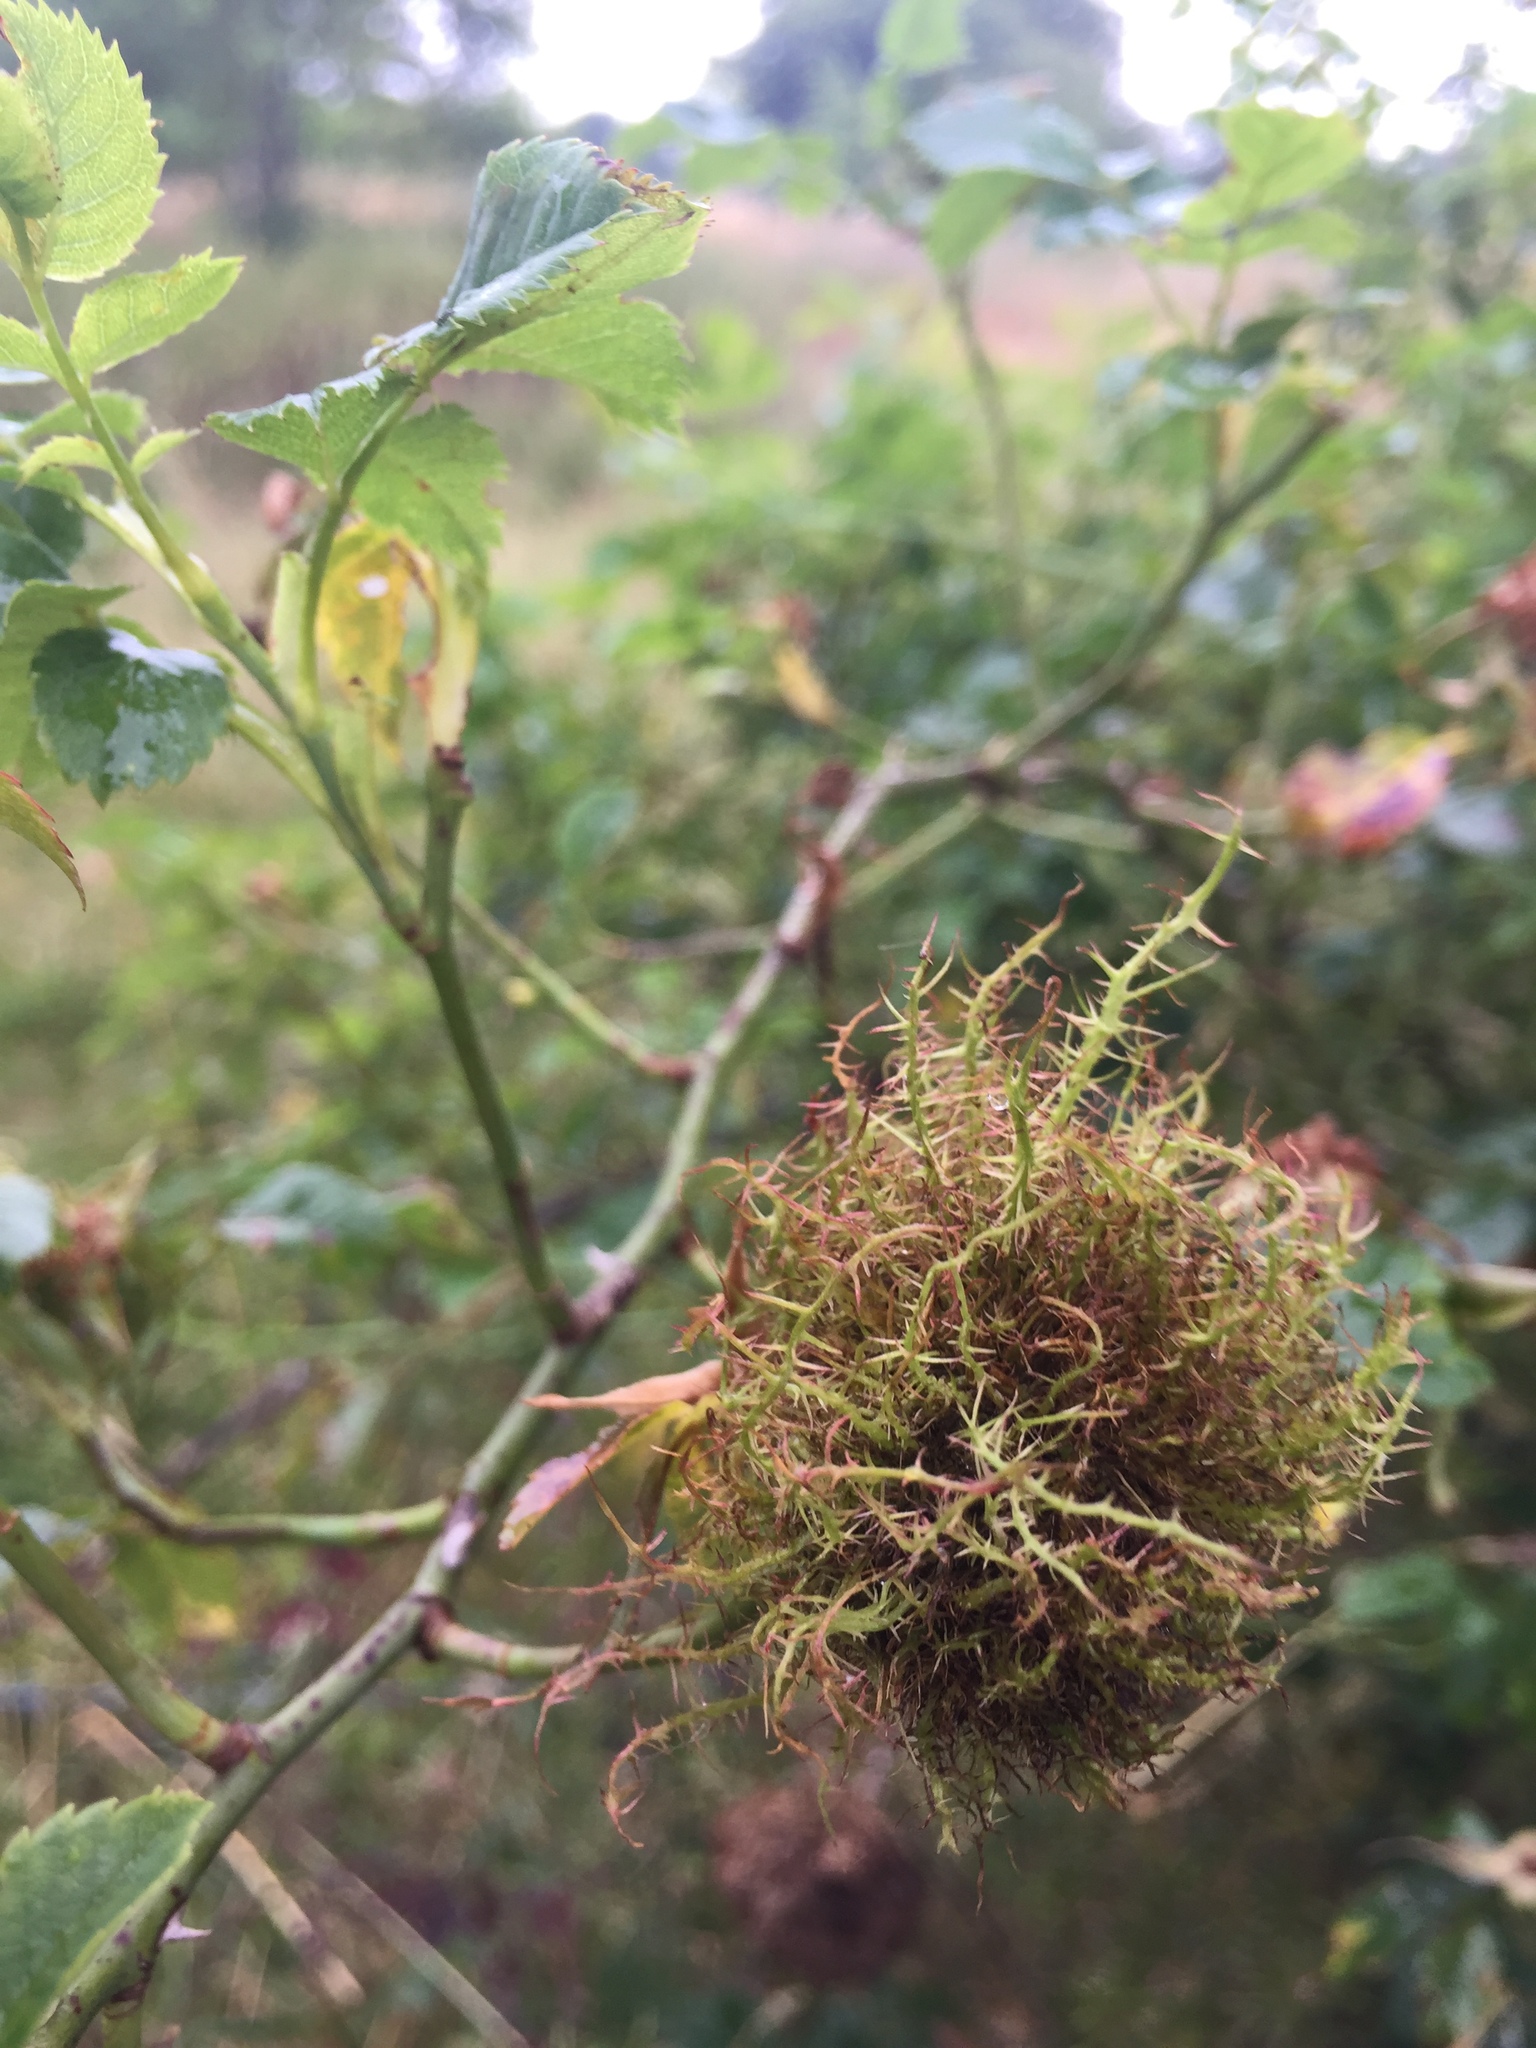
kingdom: Animalia
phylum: Arthropoda
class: Insecta
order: Hymenoptera
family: Cynipidae
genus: Diplolepis
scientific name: Diplolepis rosae
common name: Bedeguar gall
